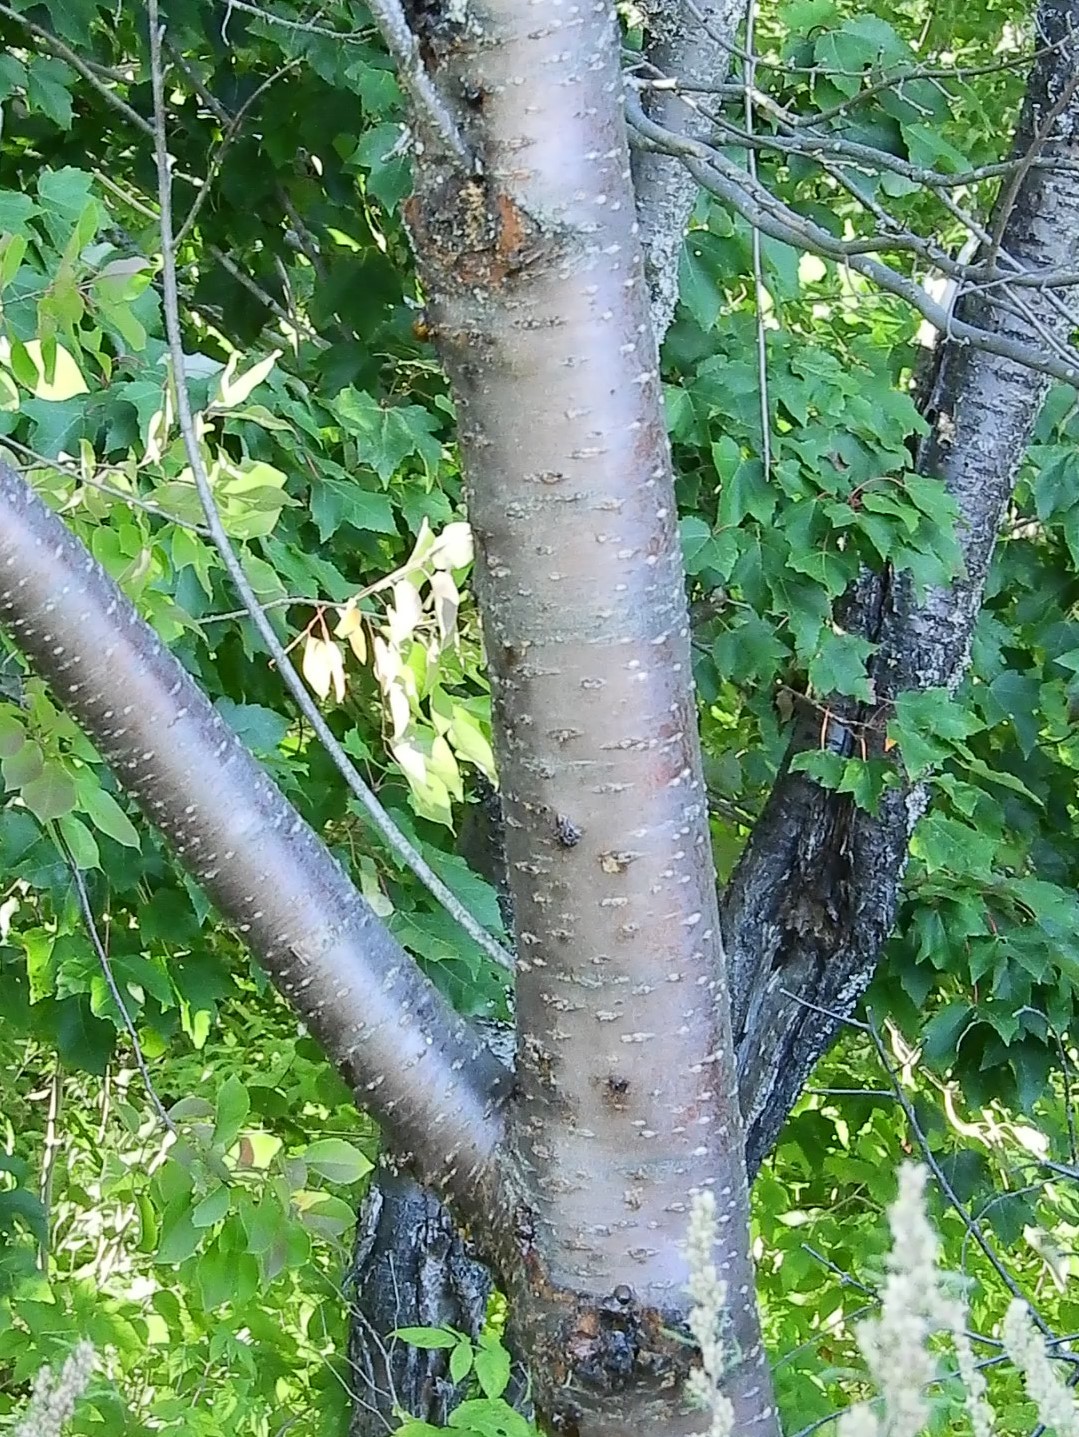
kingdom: Plantae
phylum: Tracheophyta
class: Magnoliopsida
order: Rosales
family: Rosaceae
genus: Prunus
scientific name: Prunus pensylvanica
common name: Pin cherry
